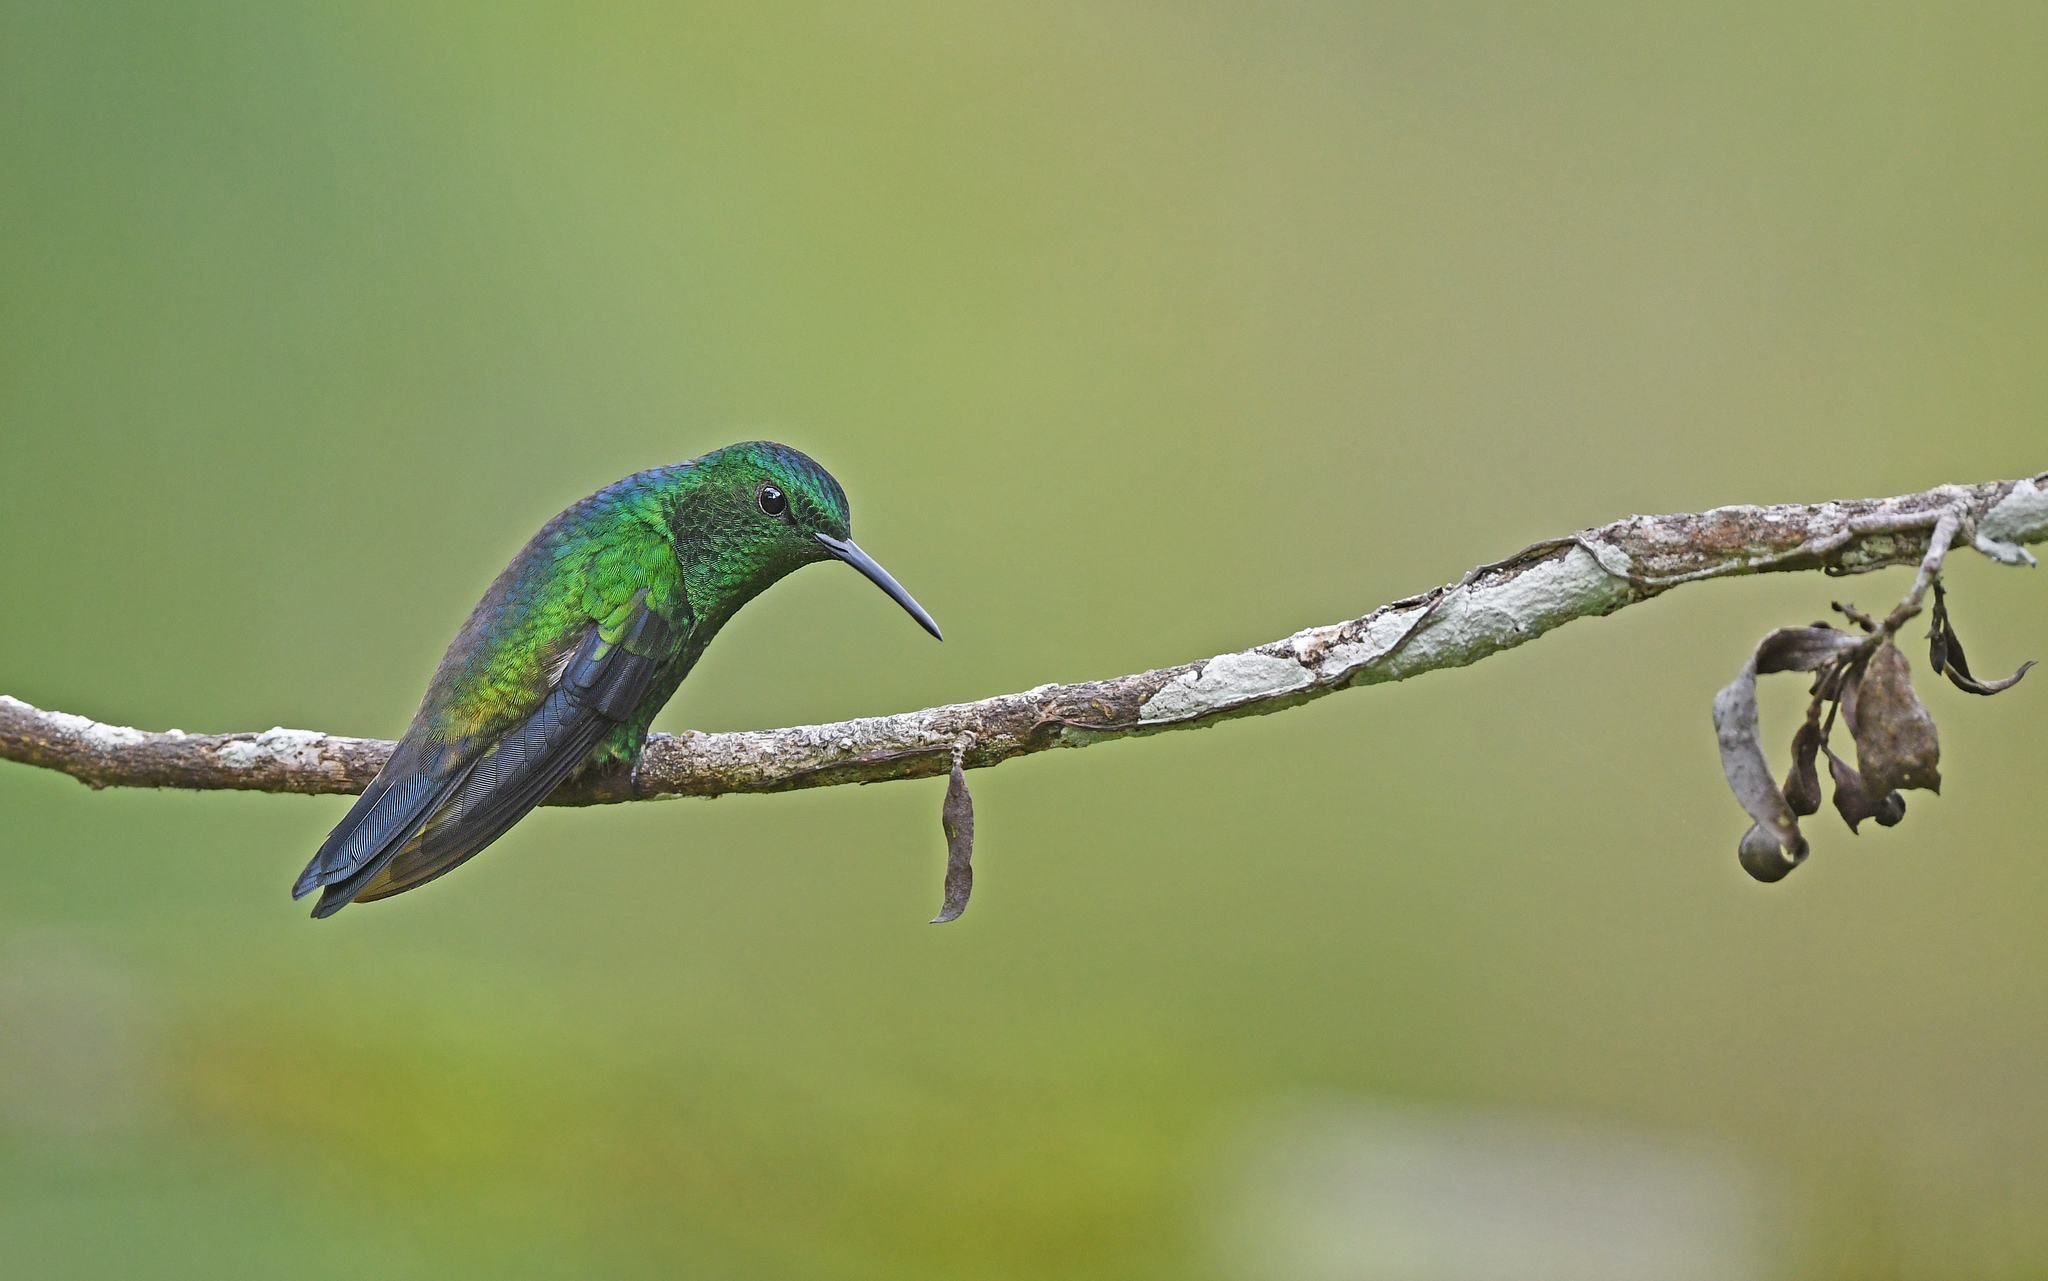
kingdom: Animalia
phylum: Chordata
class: Aves
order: Apodiformes
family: Trochilidae
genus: Saucerottia
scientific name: Saucerottia saucerottei
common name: Steely-vented hummingbird
